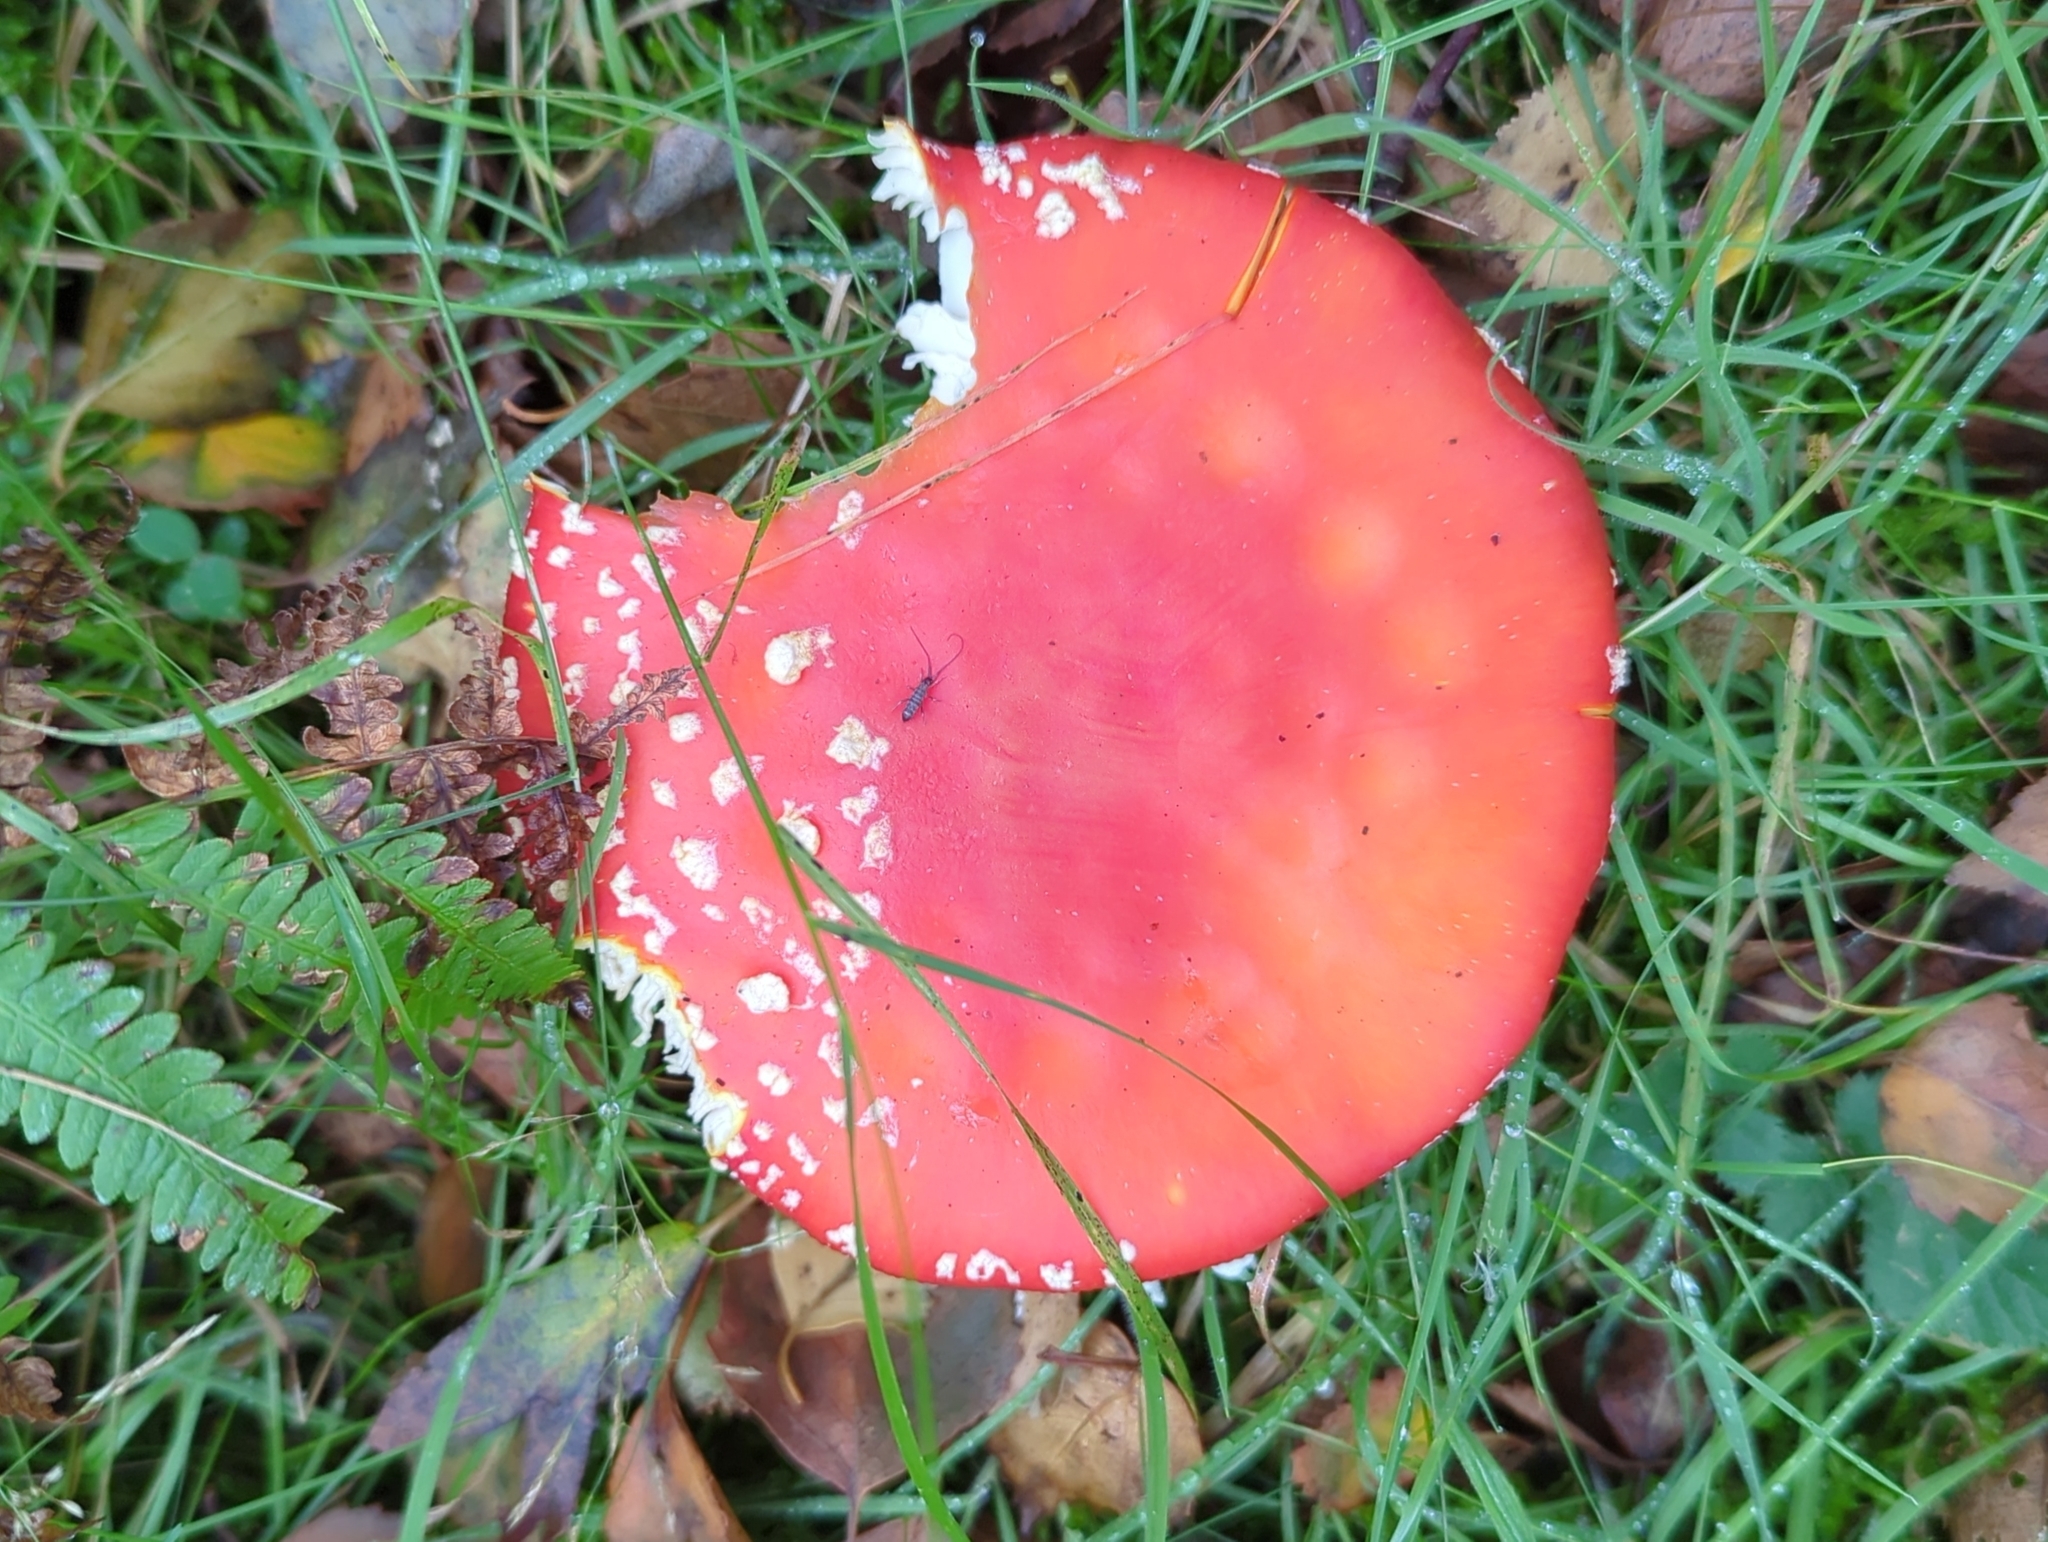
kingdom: Fungi
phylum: Basidiomycota
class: Agaricomycetes
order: Agaricales
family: Amanitaceae
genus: Amanita
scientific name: Amanita muscaria
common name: Fly agaric
